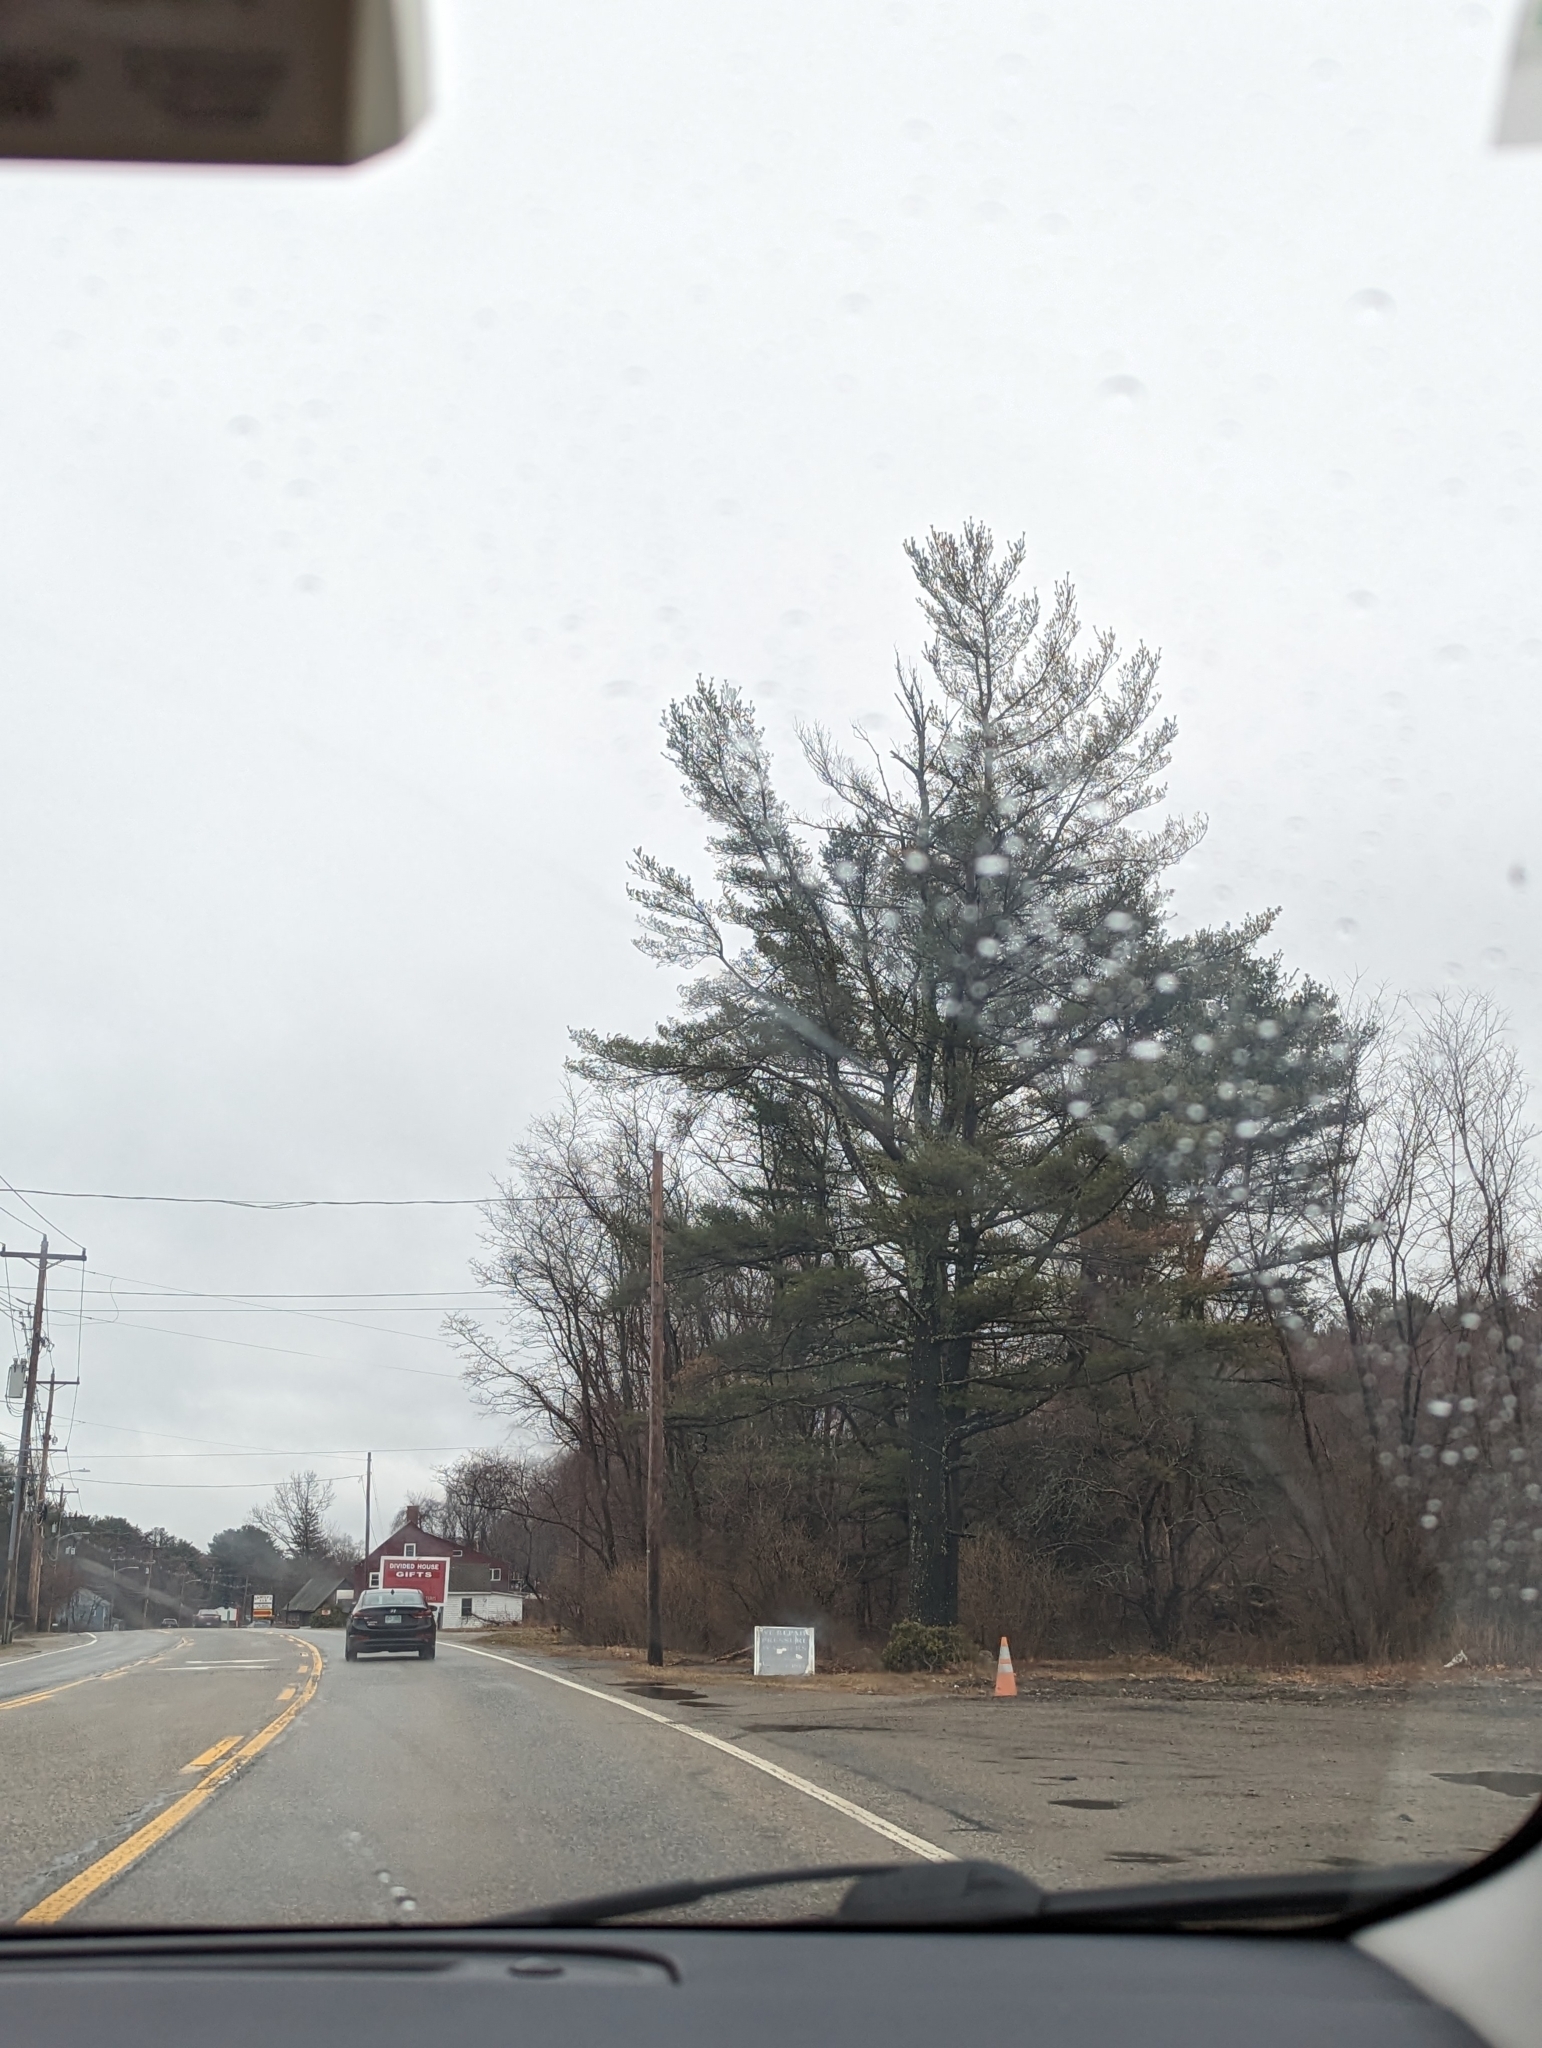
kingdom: Plantae
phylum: Tracheophyta
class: Pinopsida
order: Pinales
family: Pinaceae
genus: Pinus
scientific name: Pinus strobus
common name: Weymouth pine
